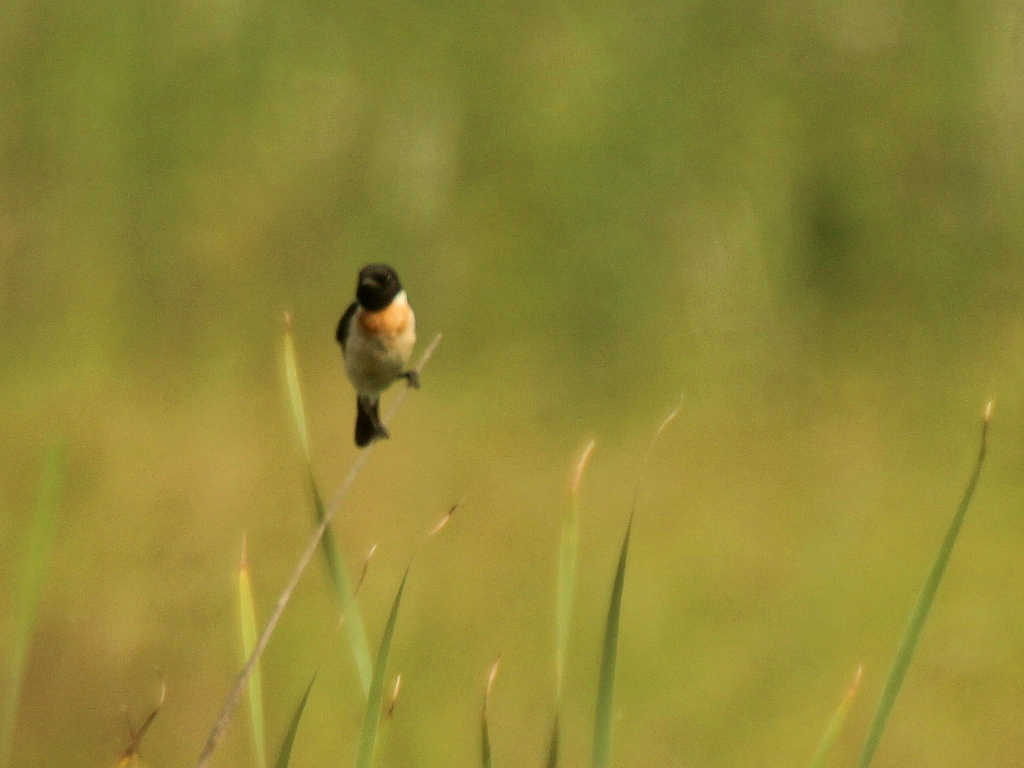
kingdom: Animalia
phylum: Chordata
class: Aves
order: Passeriformes
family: Muscicapidae
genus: Saxicola
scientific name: Saxicola maurus
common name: Siberian stonechat
